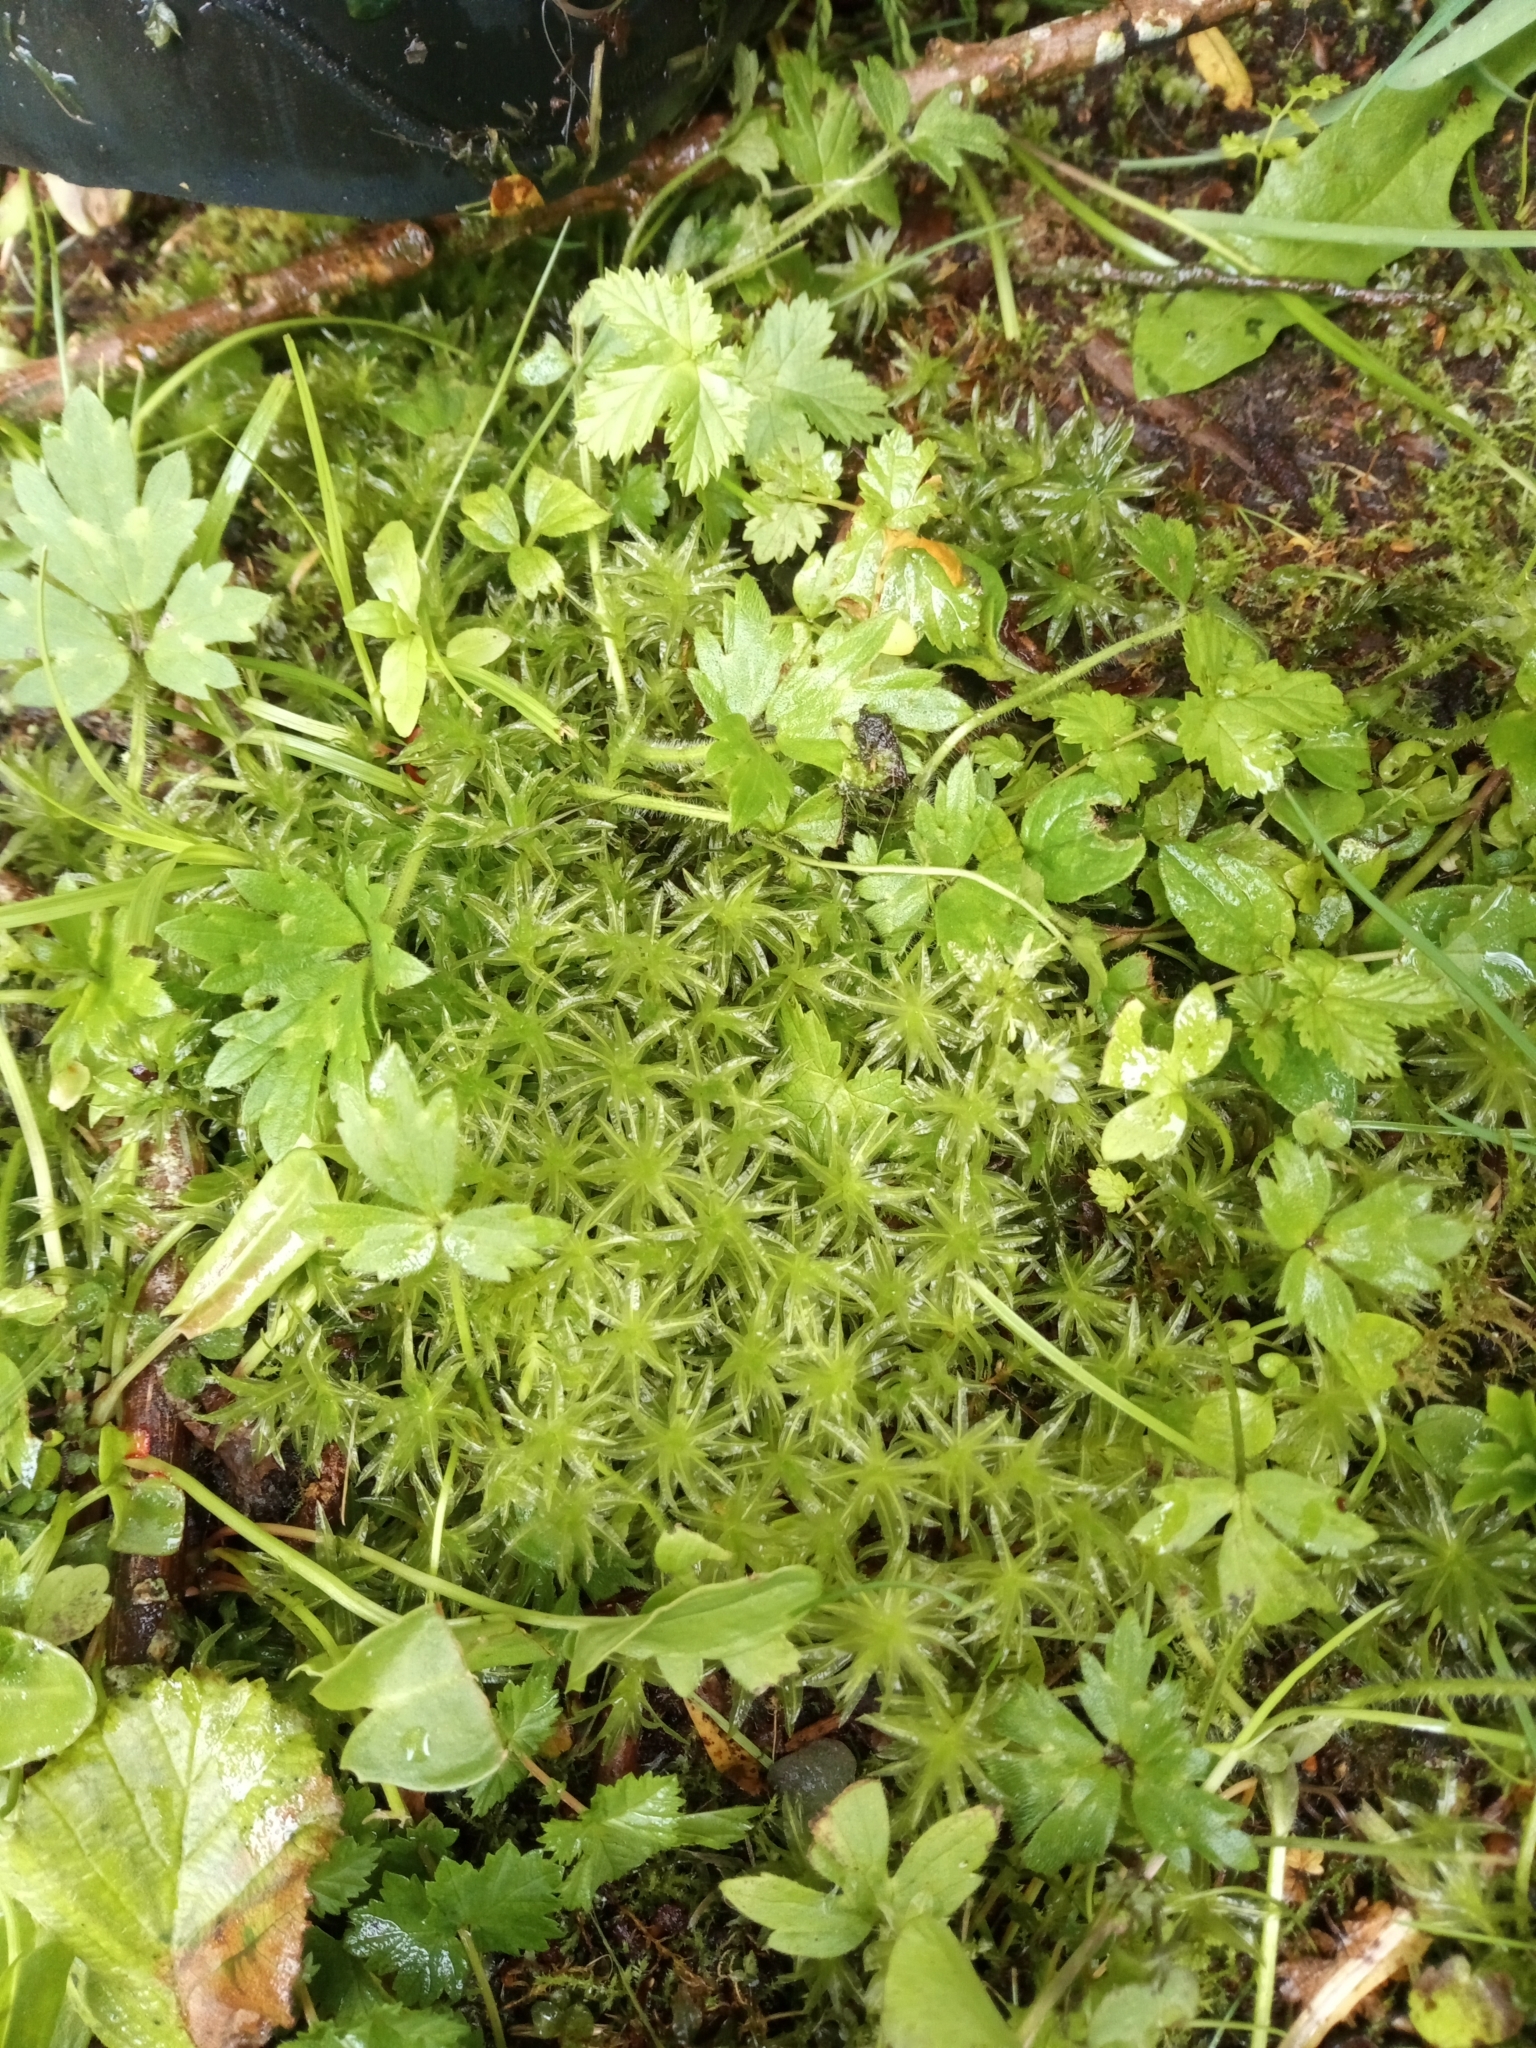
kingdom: Plantae
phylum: Bryophyta
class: Polytrichopsida
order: Polytrichales
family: Polytrichaceae
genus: Atrichum
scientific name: Atrichum undulatum
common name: Common smoothcap
